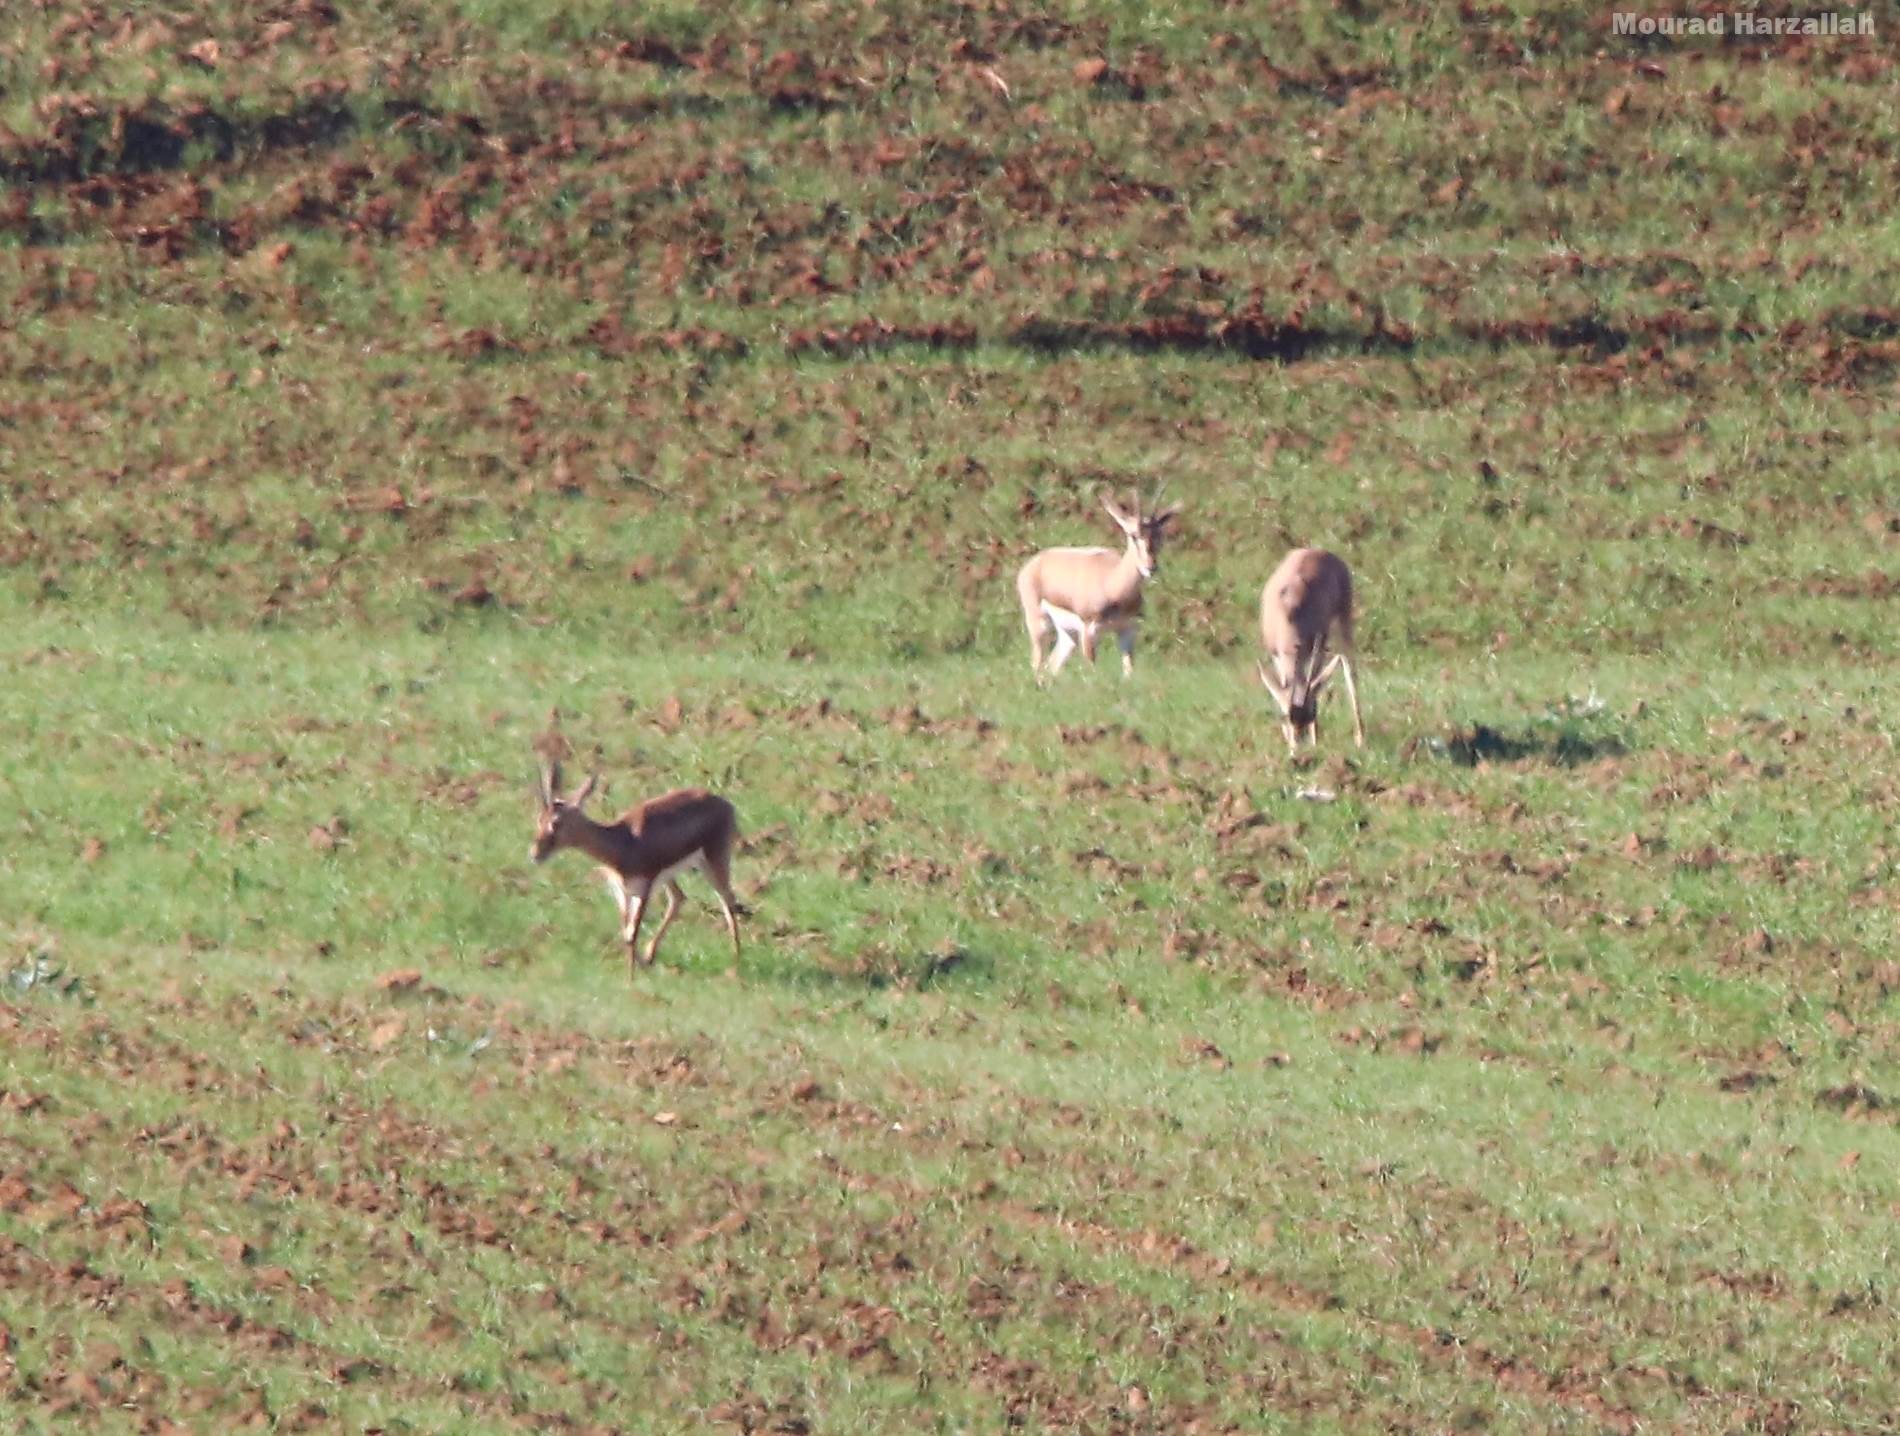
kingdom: Animalia
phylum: Chordata
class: Mammalia
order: Artiodactyla
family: Bovidae
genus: Gazella
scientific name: Gazella cuvieri
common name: Cuvier's gazelle
